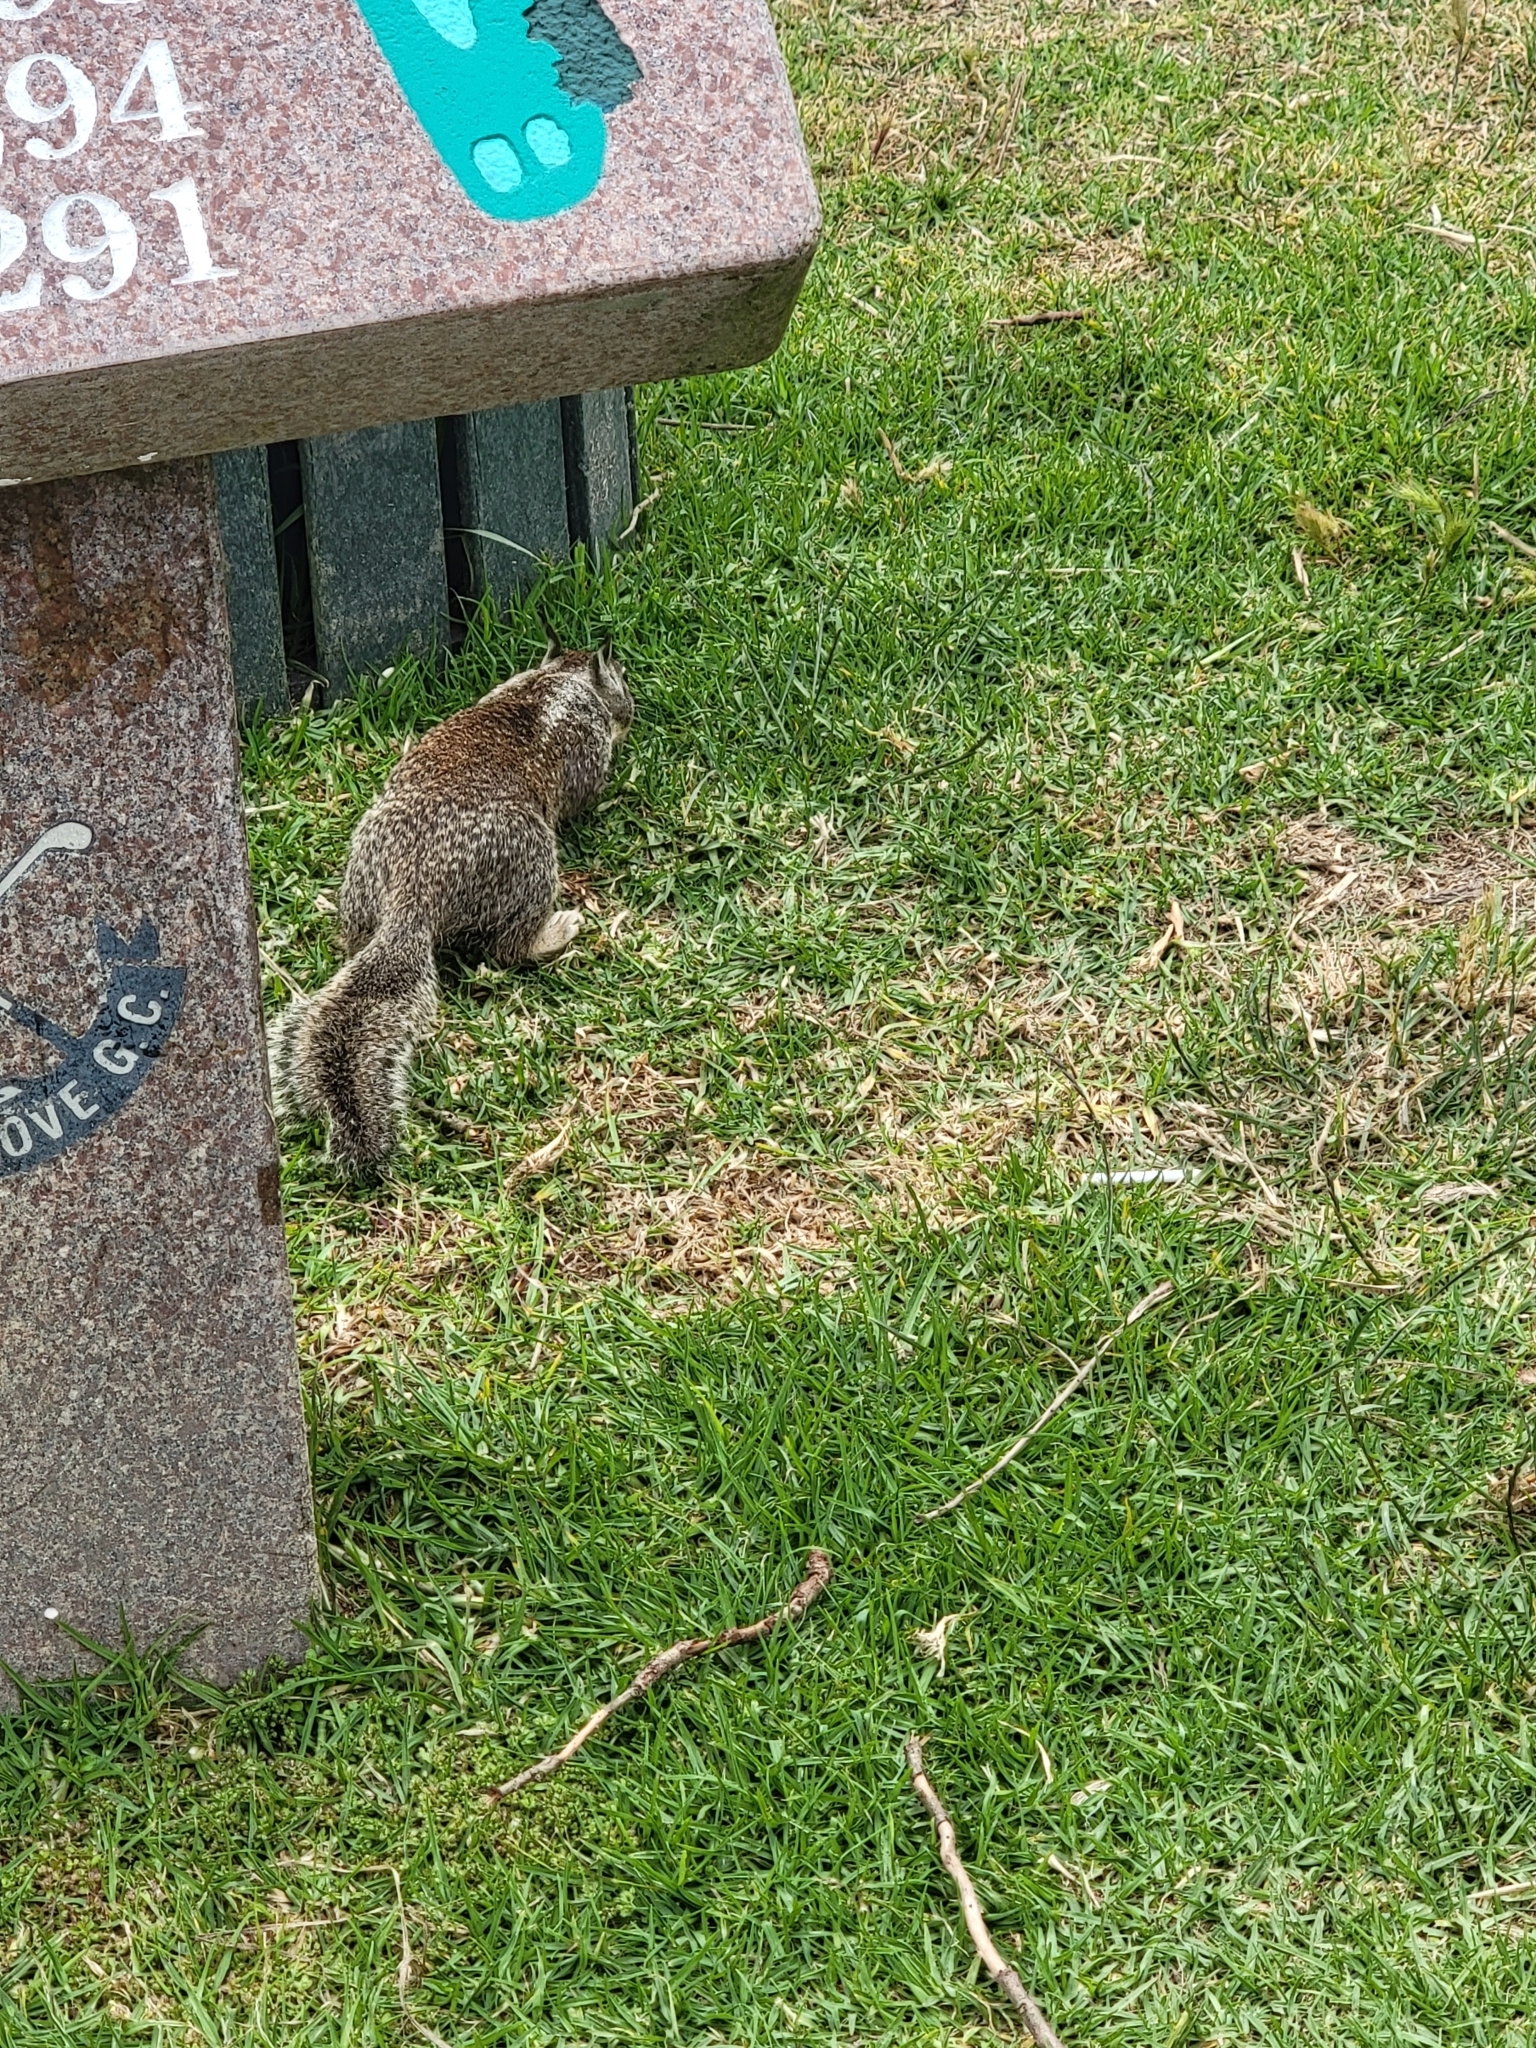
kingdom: Animalia
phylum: Chordata
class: Mammalia
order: Rodentia
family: Sciuridae
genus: Otospermophilus
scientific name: Otospermophilus beecheyi
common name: California ground squirrel
